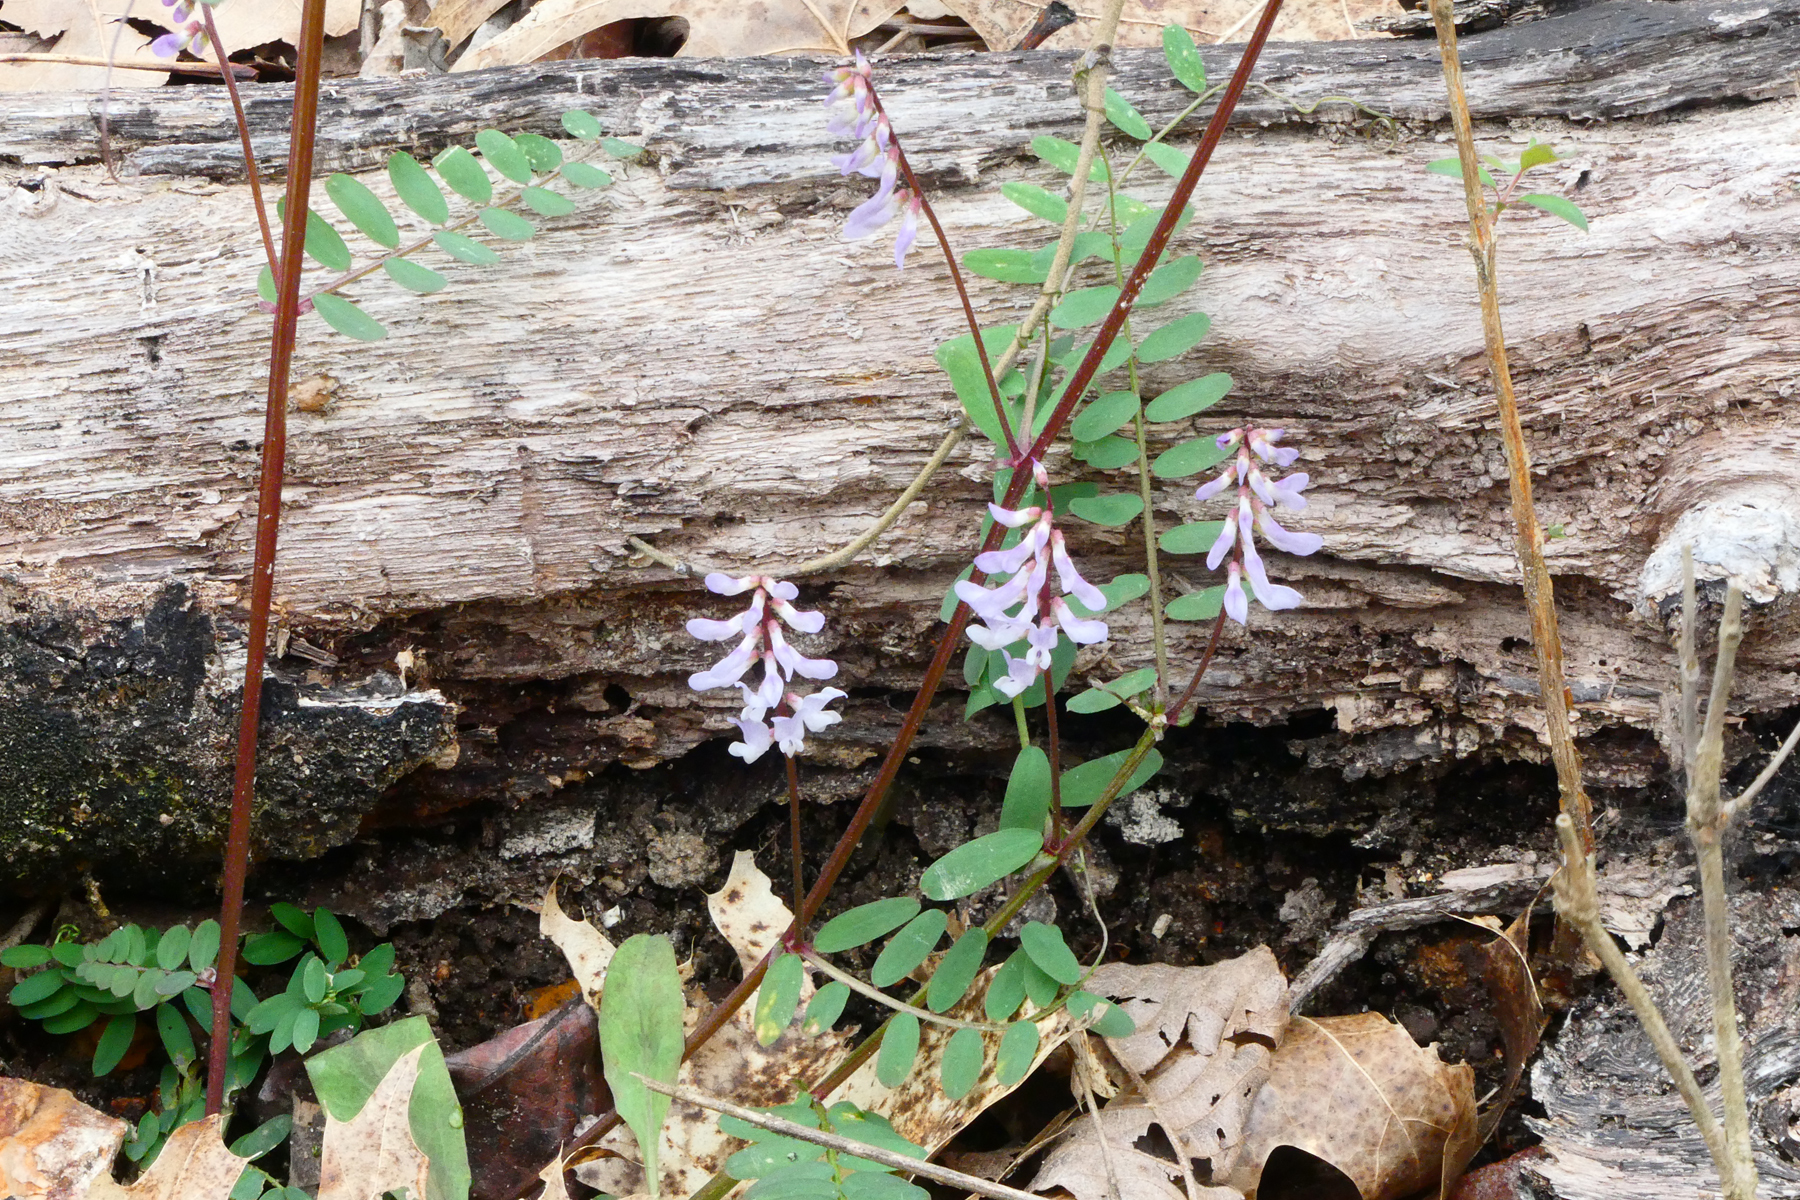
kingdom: Plantae
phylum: Tracheophyta
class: Magnoliopsida
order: Fabales
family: Fabaceae
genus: Vicia
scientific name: Vicia caroliniana
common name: Carolina vetch
